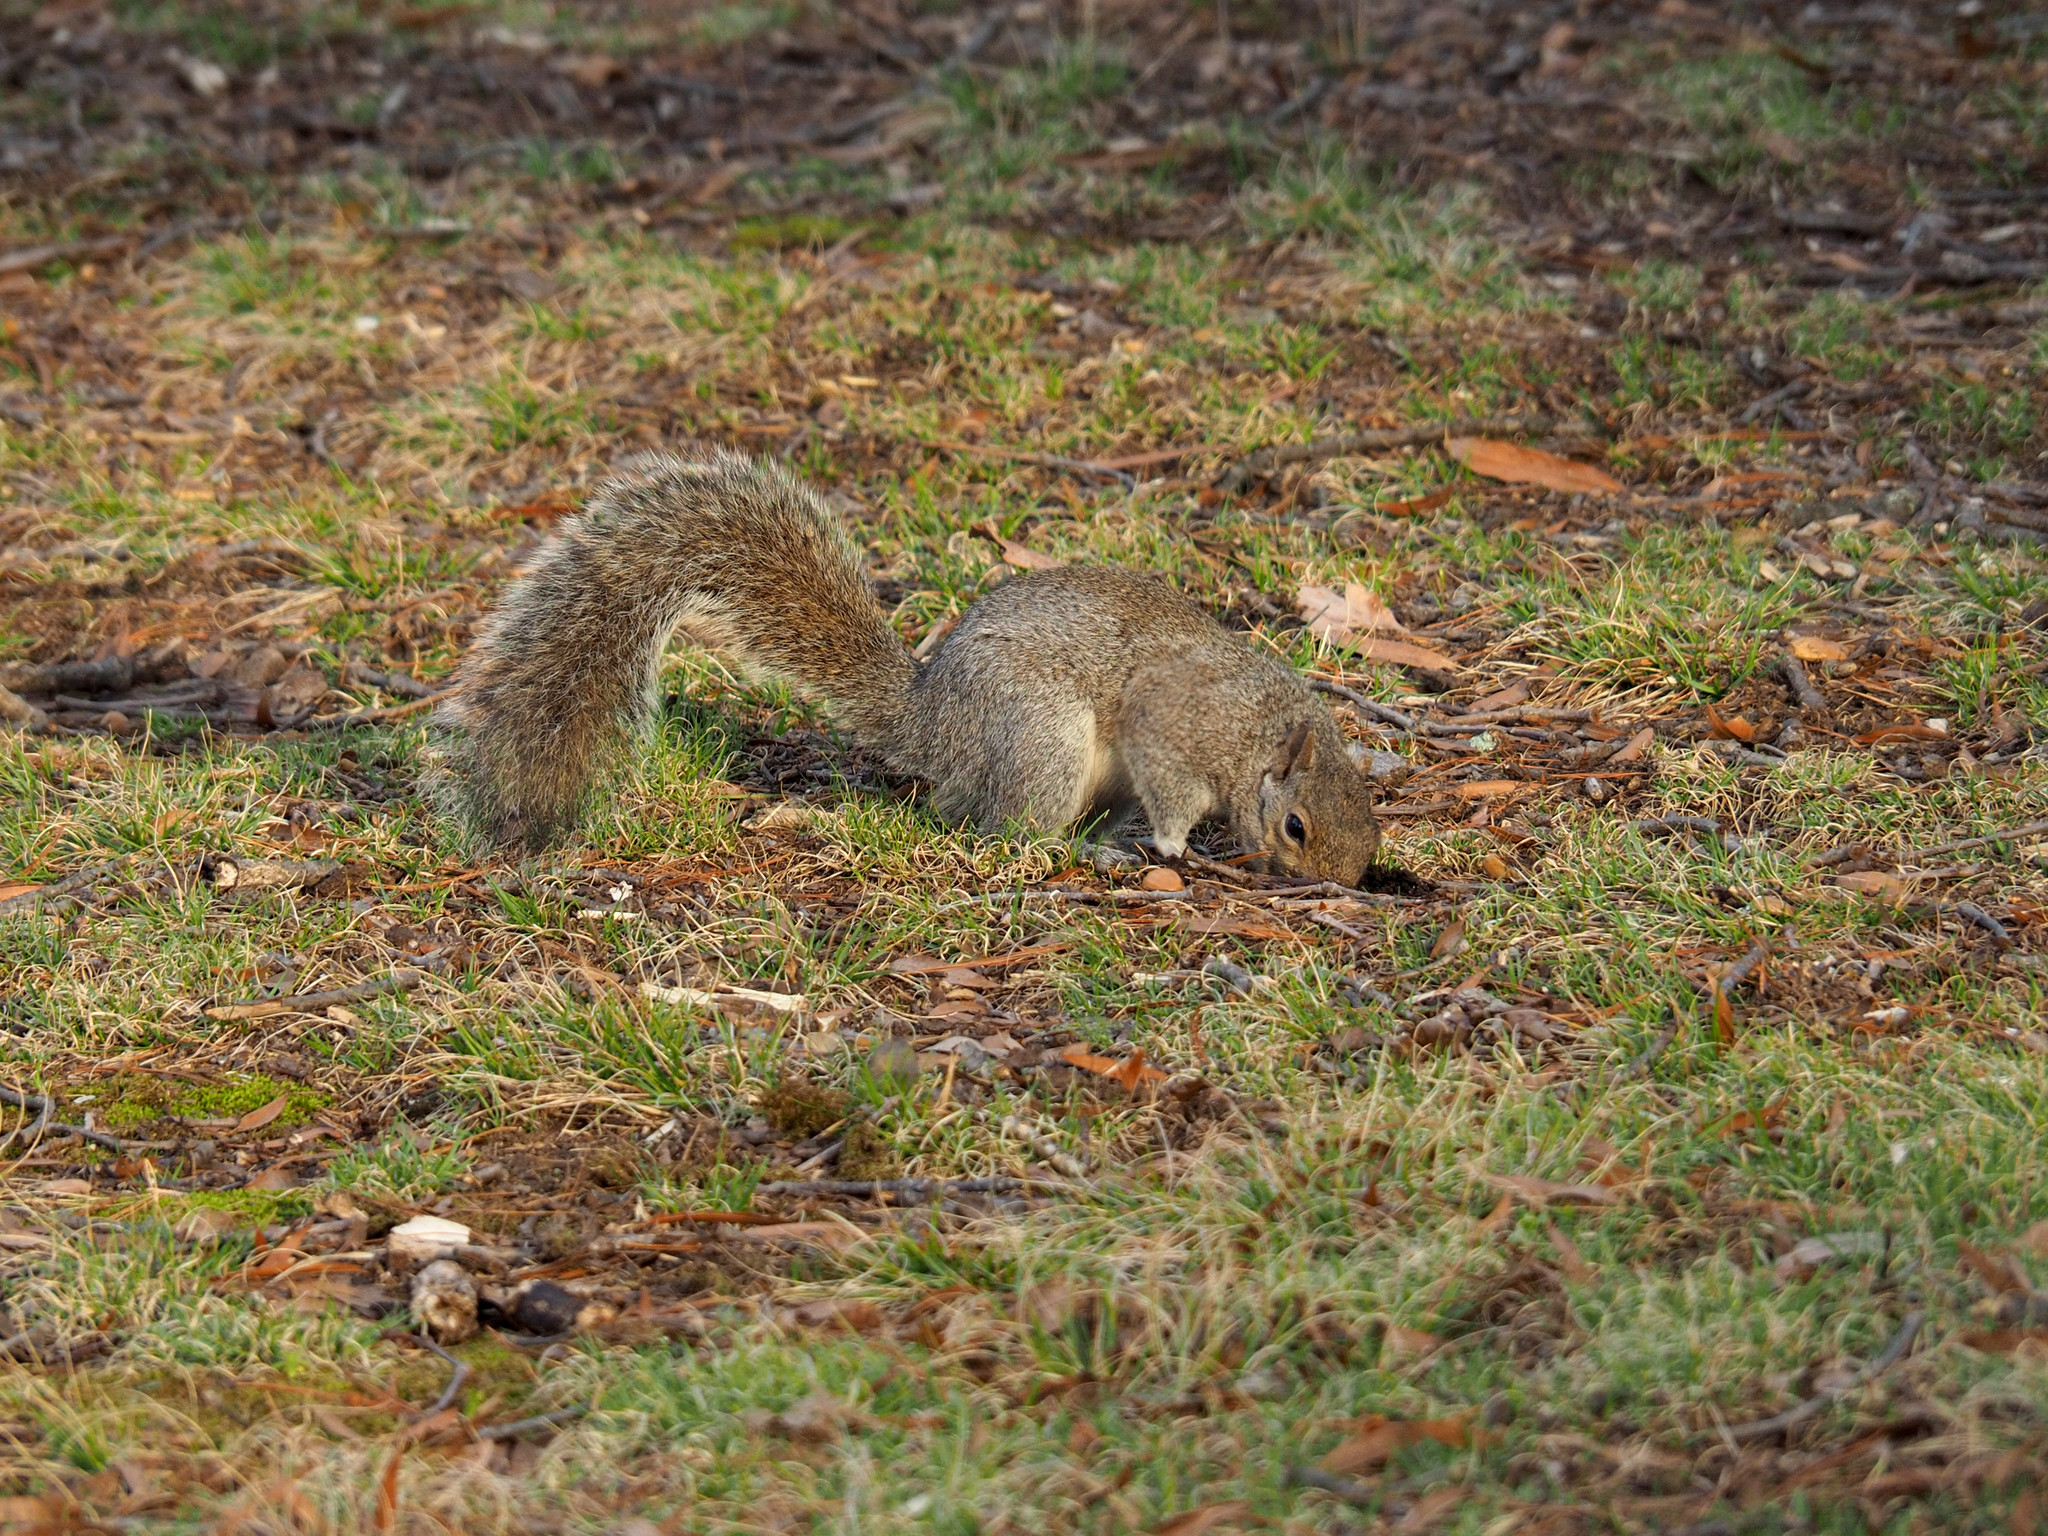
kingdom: Animalia
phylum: Chordata
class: Mammalia
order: Rodentia
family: Sciuridae
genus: Sciurus
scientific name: Sciurus carolinensis
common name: Eastern gray squirrel
